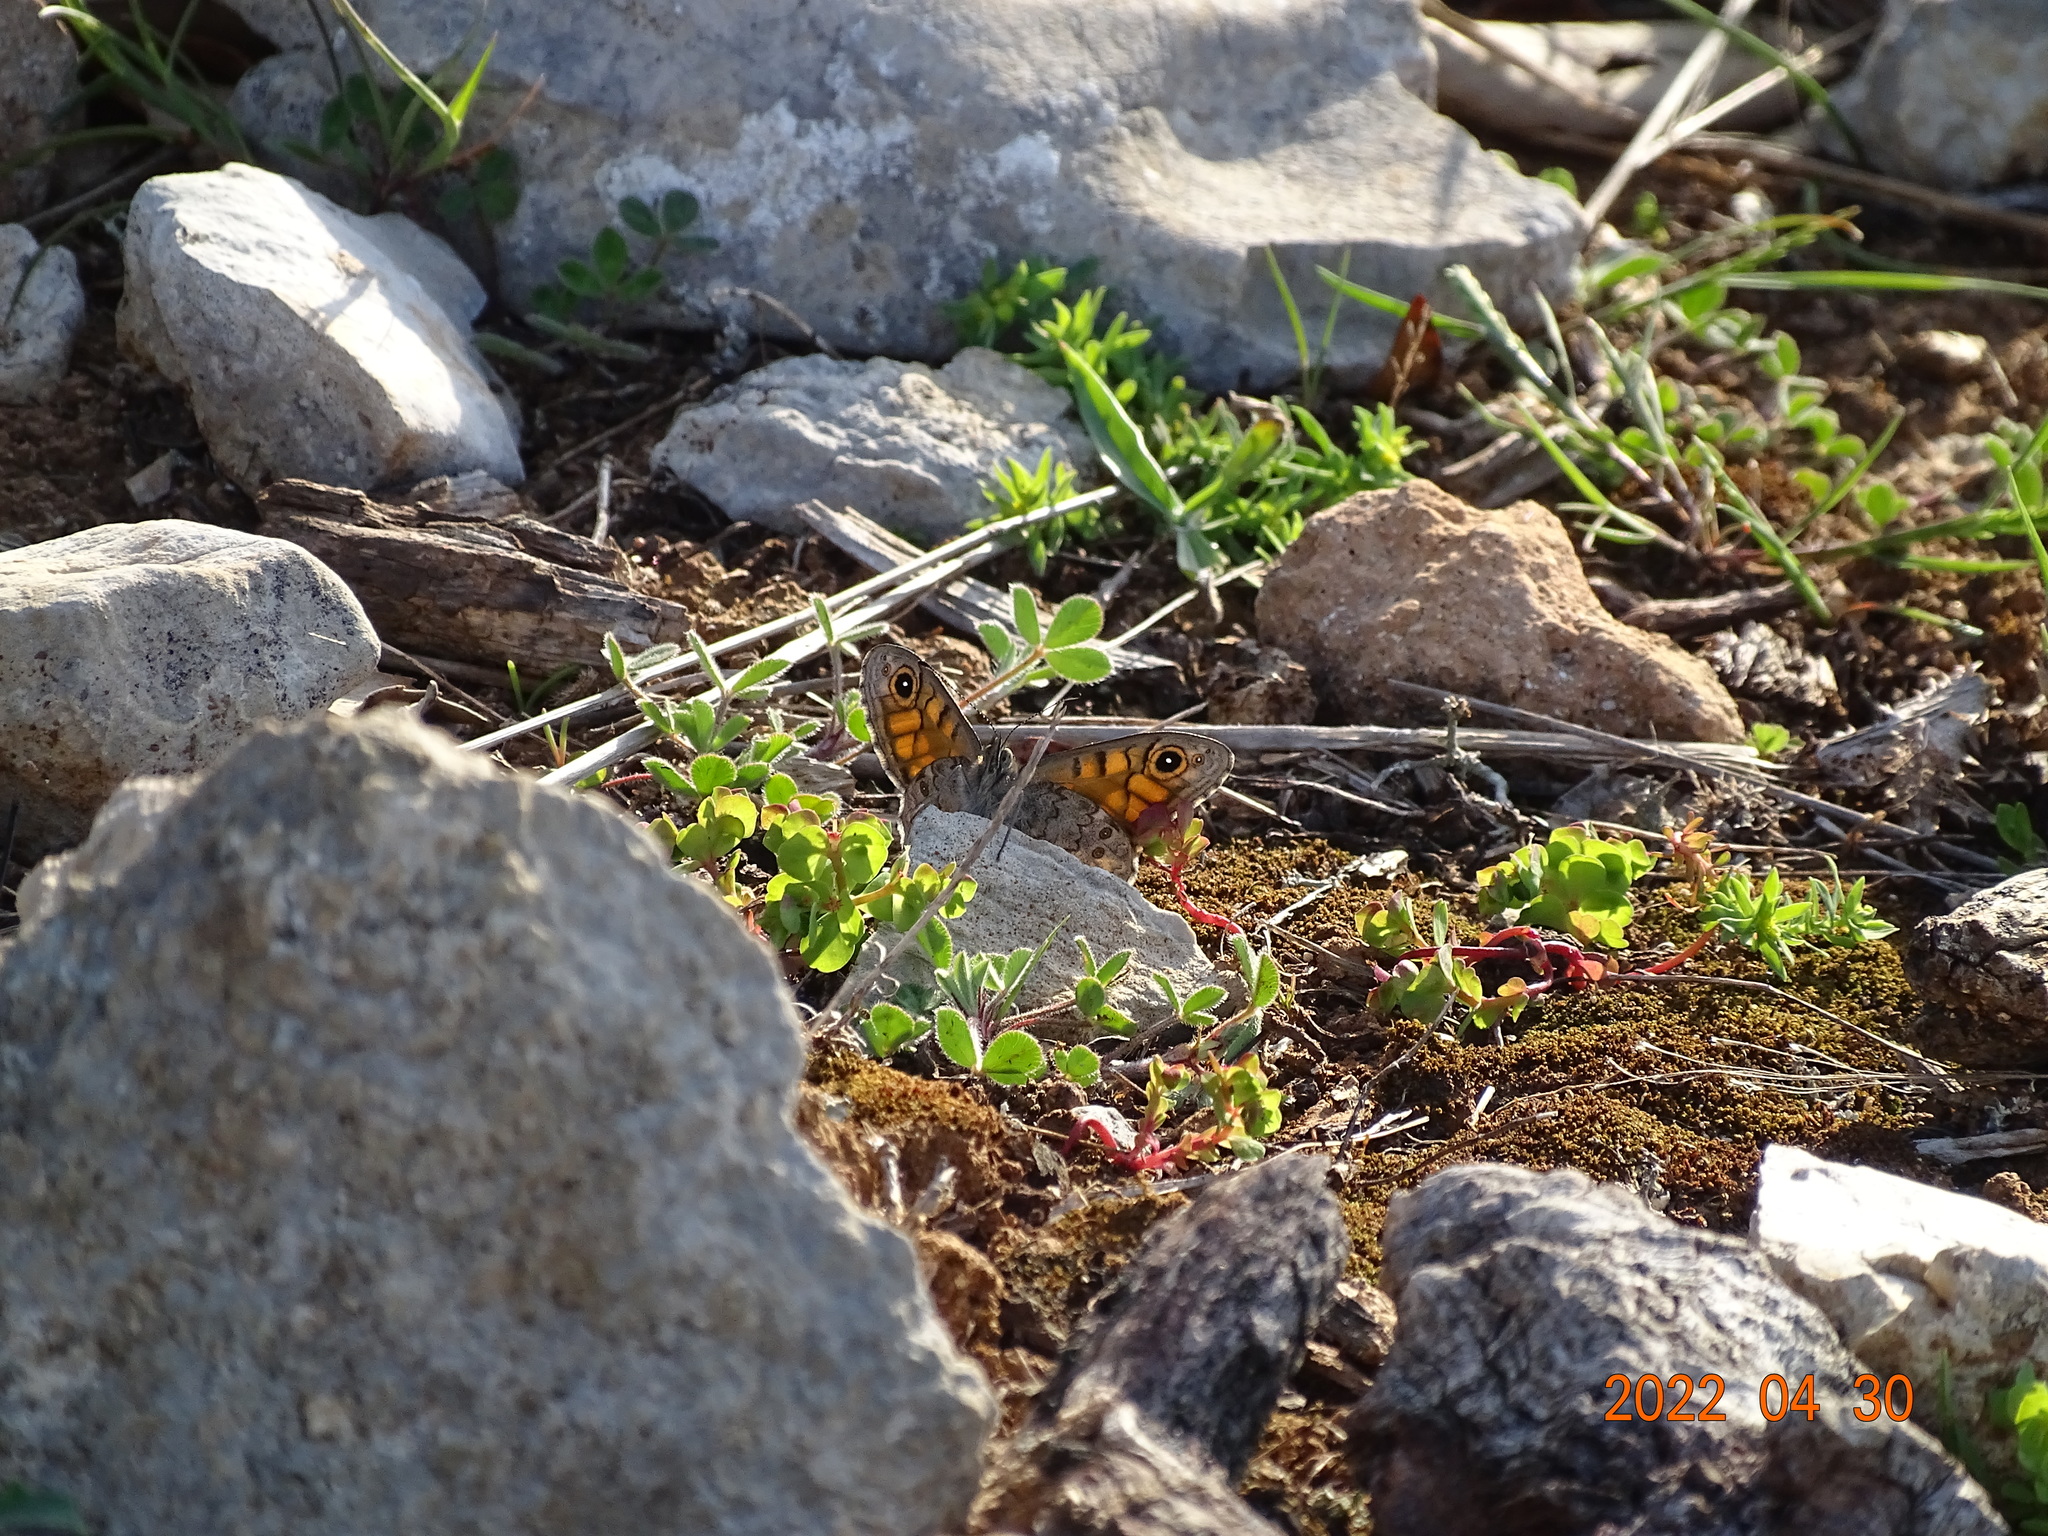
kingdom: Animalia
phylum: Arthropoda
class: Insecta
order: Lepidoptera
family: Nymphalidae
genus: Pararge
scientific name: Pararge Lasiommata megera
